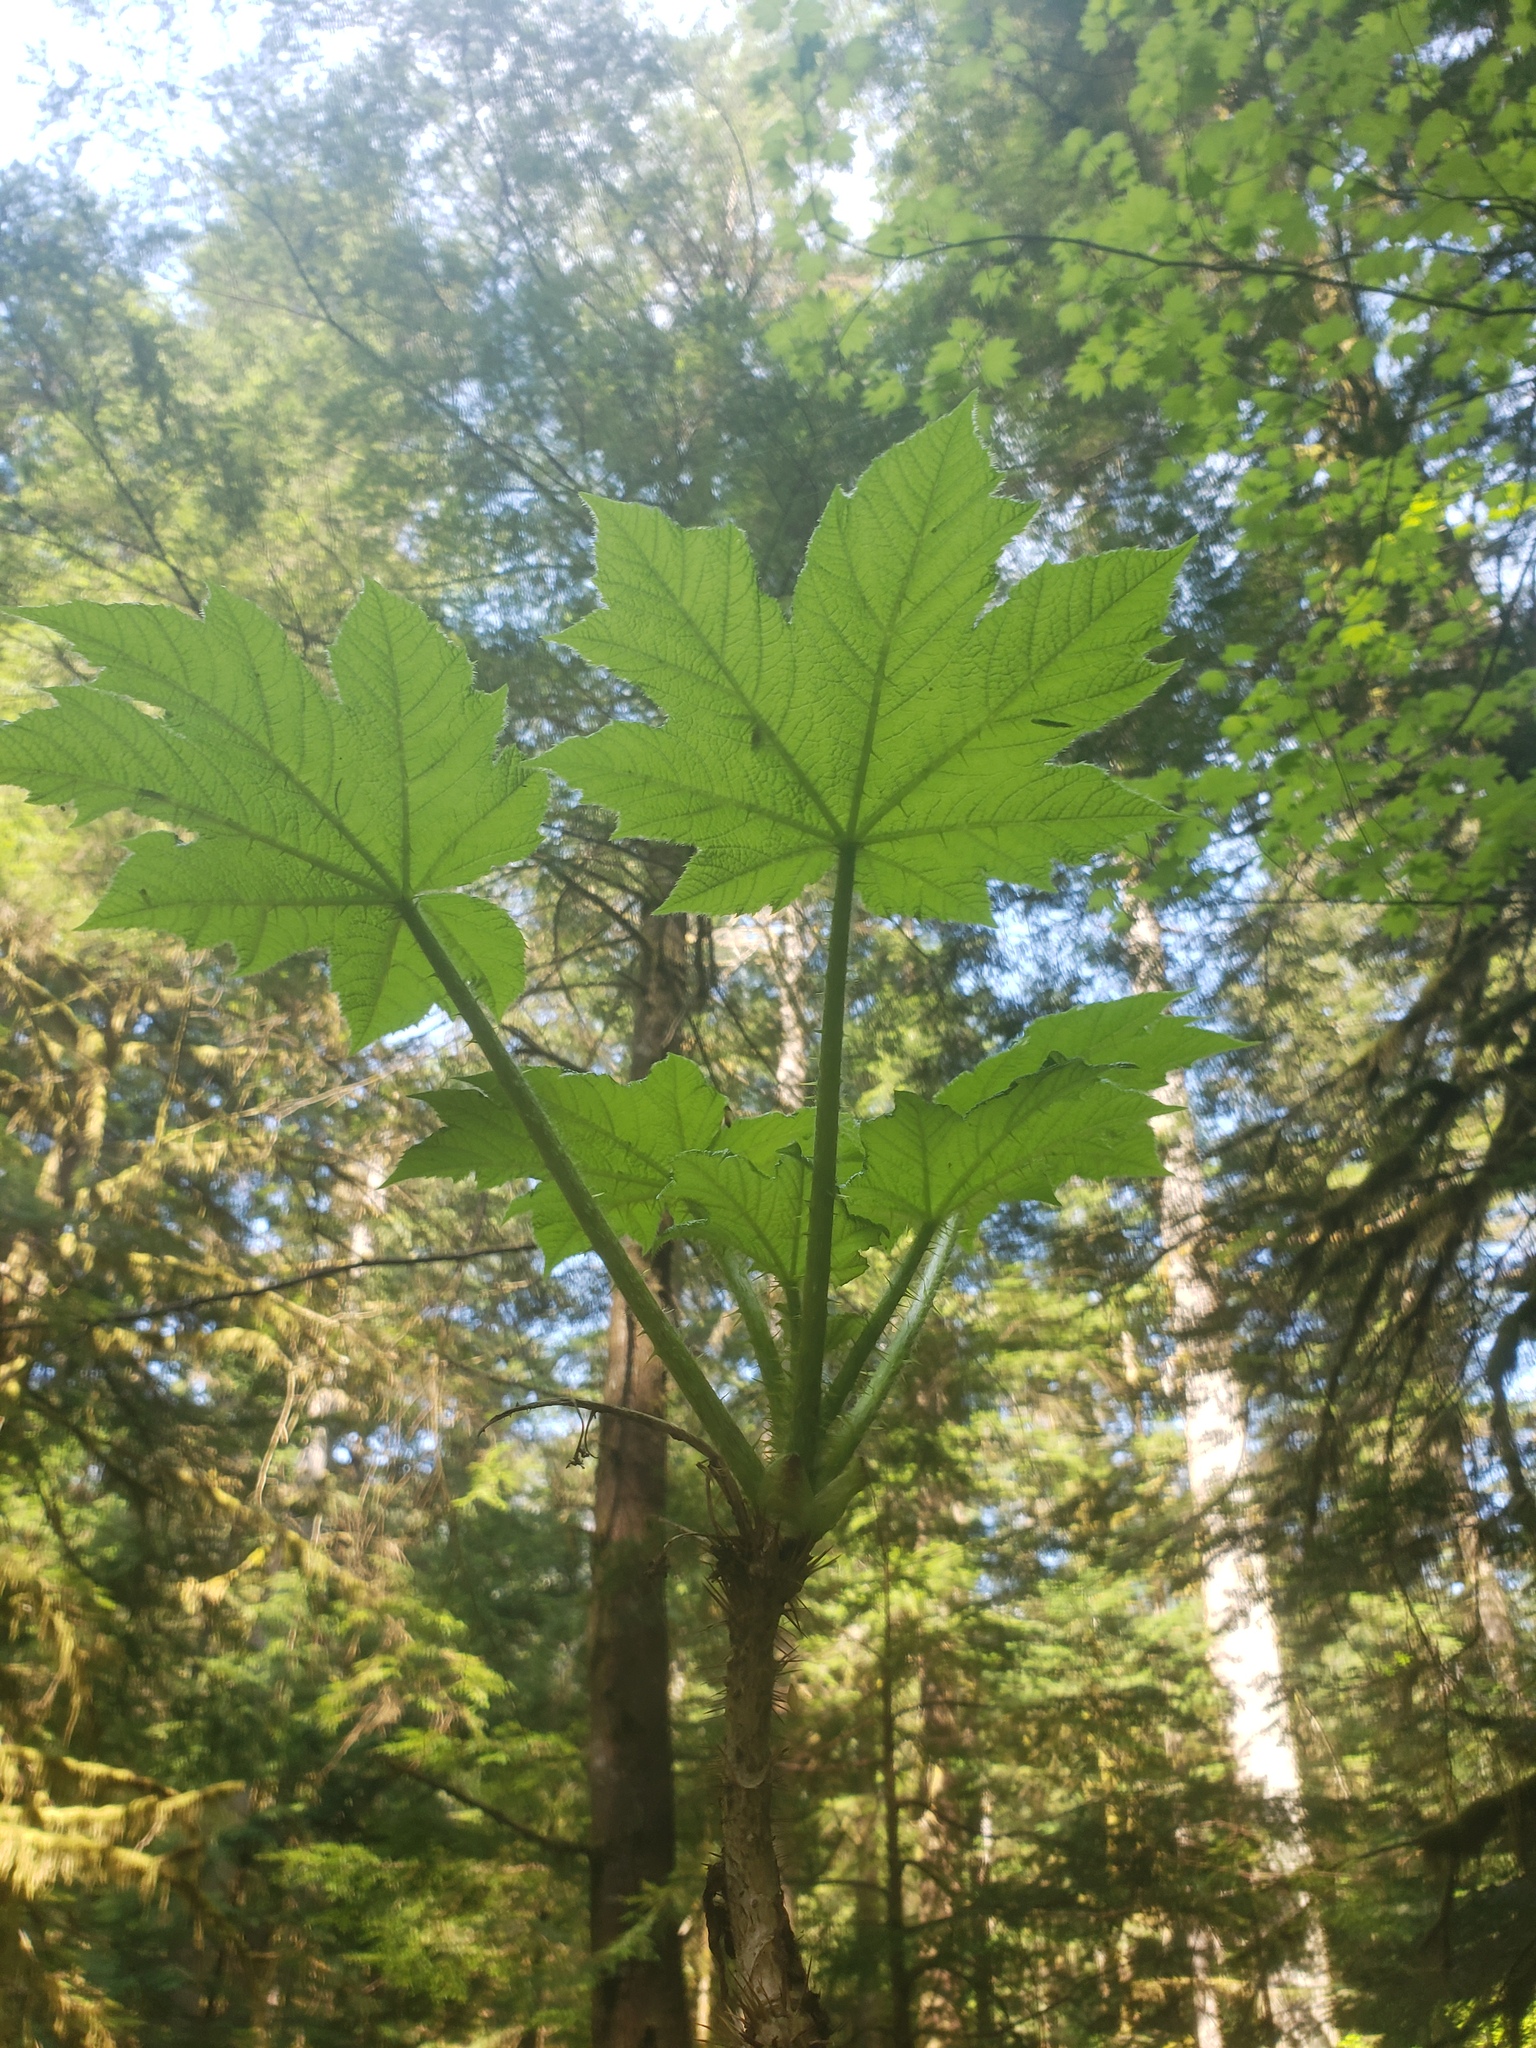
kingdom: Plantae
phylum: Tracheophyta
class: Magnoliopsida
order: Apiales
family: Araliaceae
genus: Oplopanax
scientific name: Oplopanax horridus
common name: Devil's walking-stick
